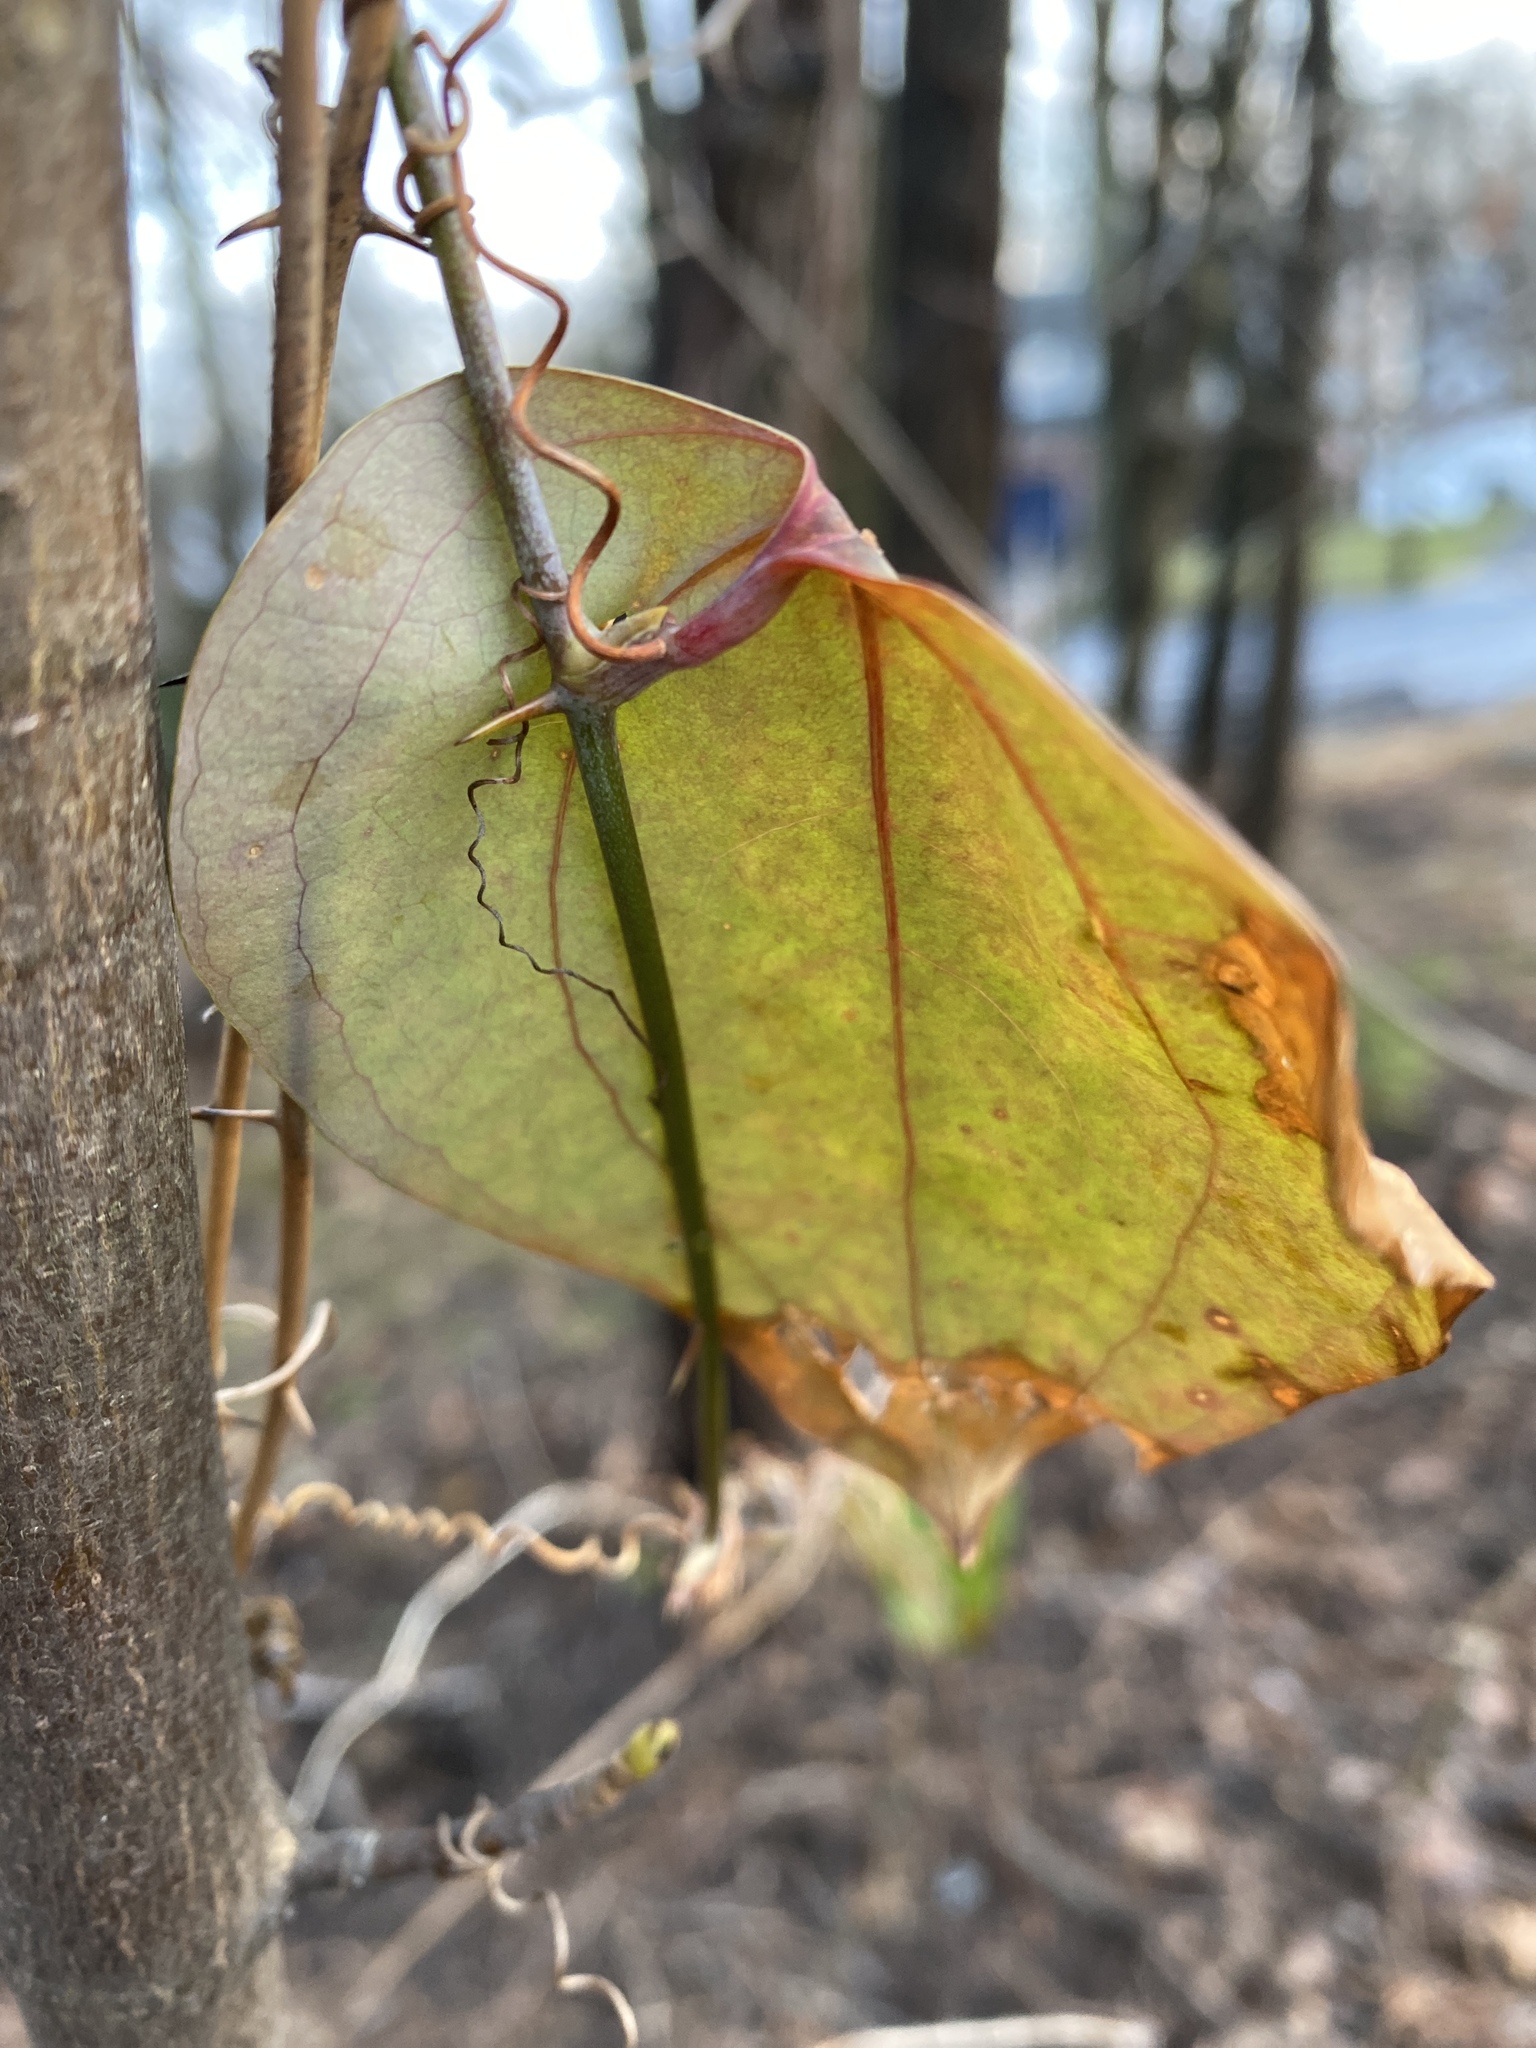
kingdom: Plantae
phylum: Tracheophyta
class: Liliopsida
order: Liliales
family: Smilacaceae
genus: Smilax
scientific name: Smilax glauca
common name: Cat greenbrier
